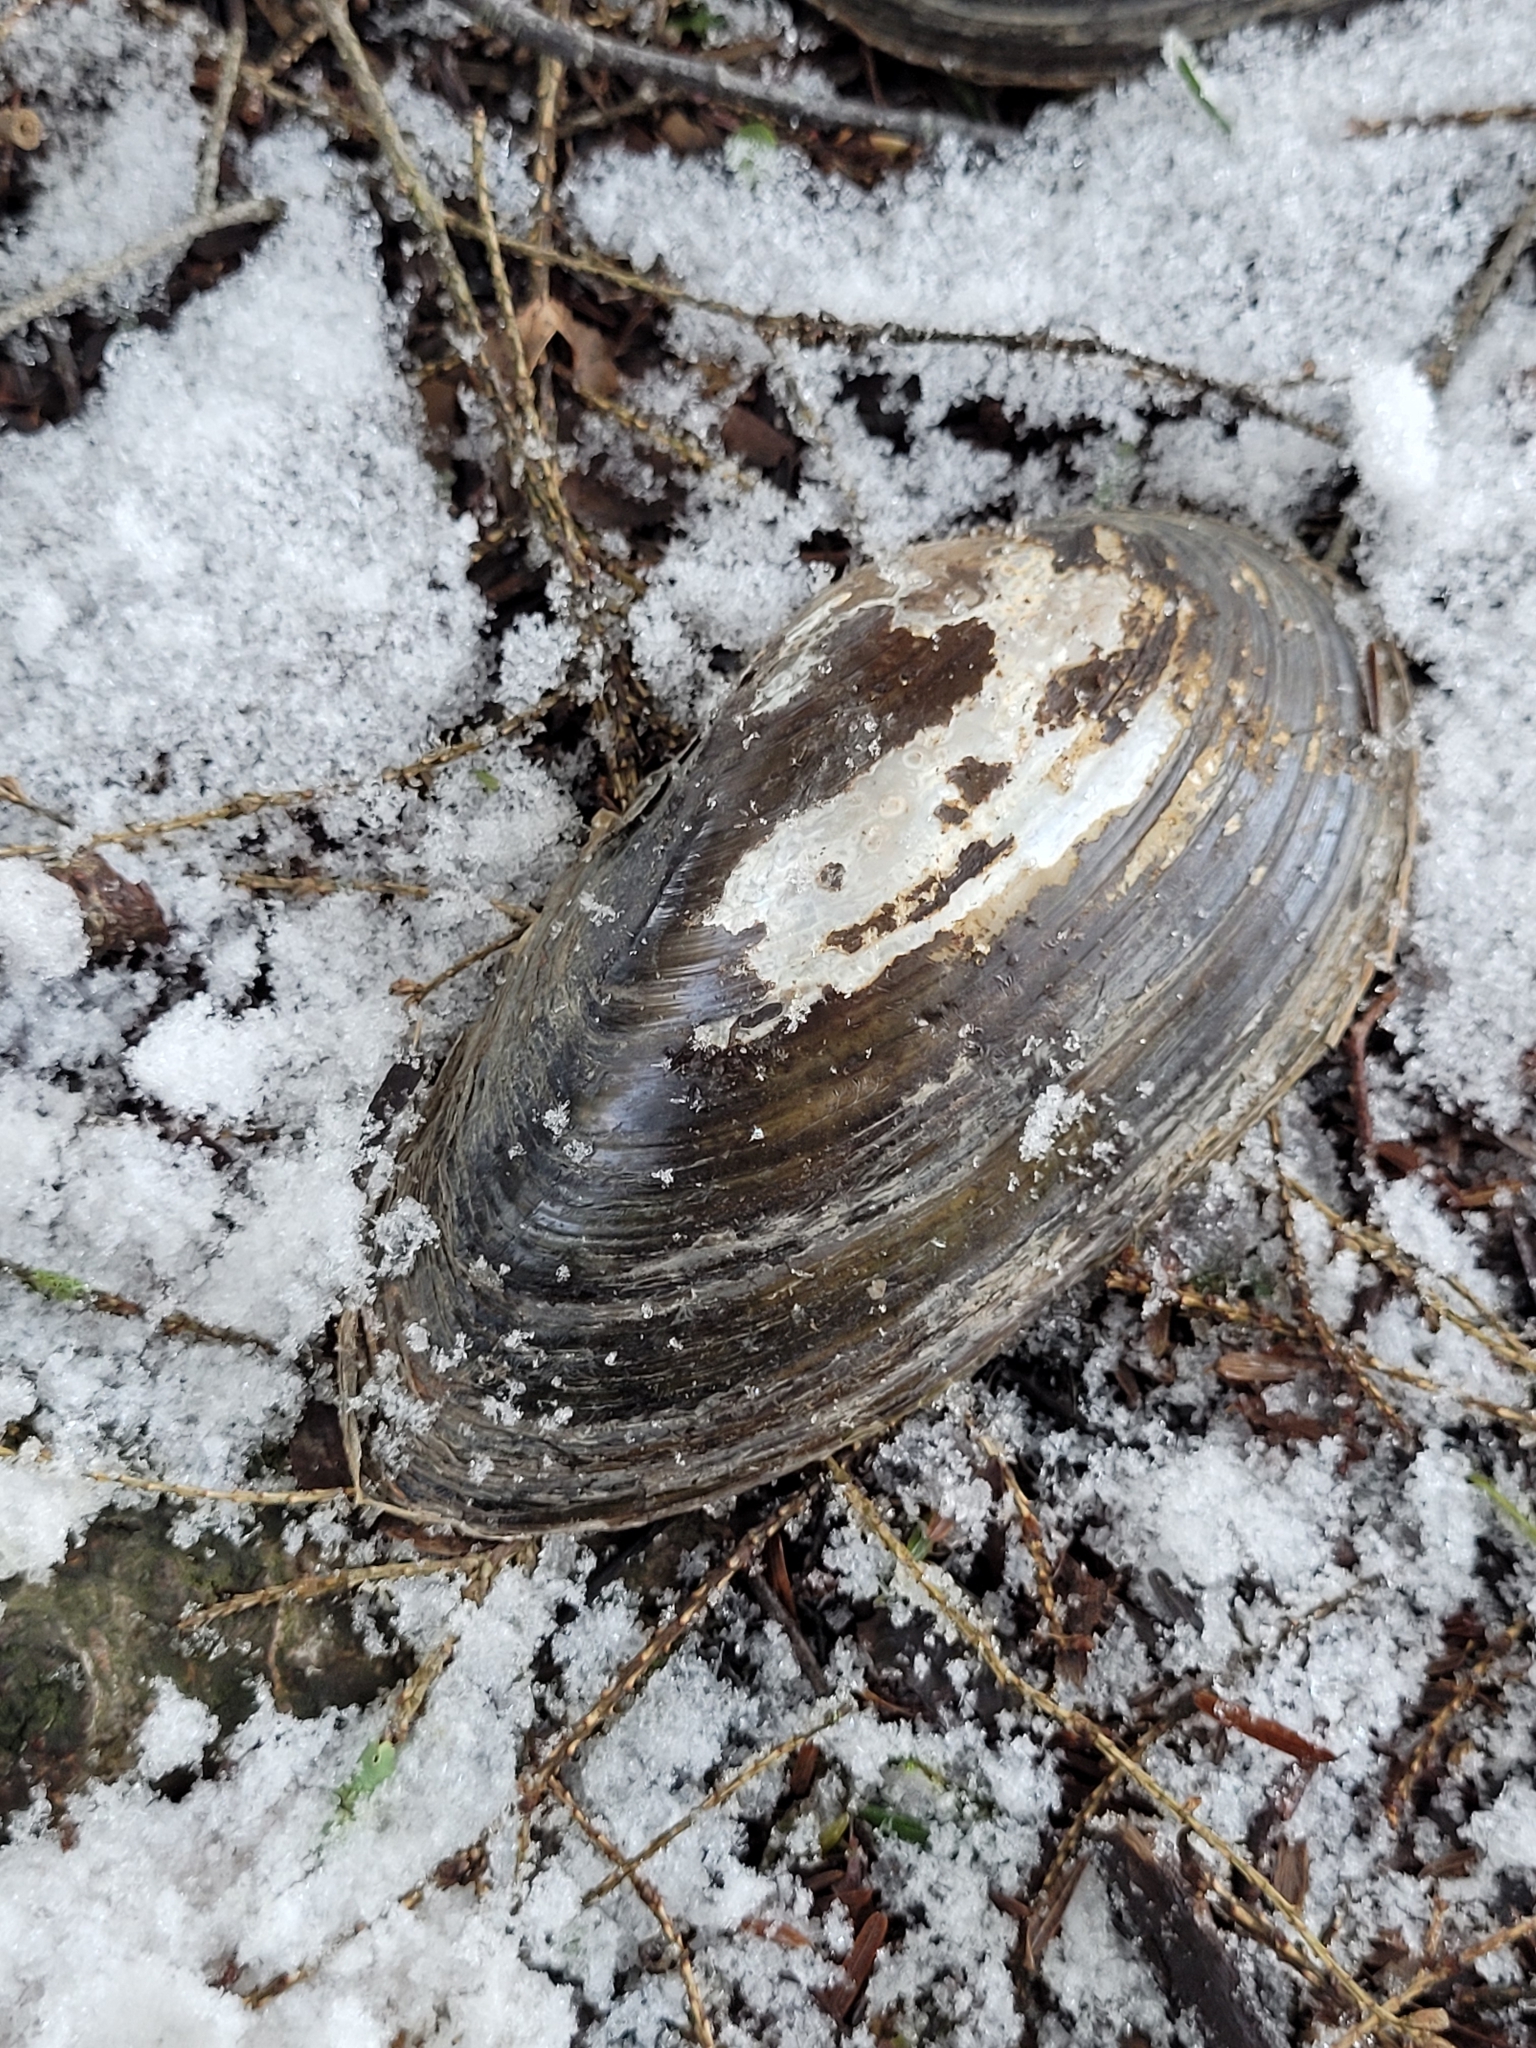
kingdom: Animalia
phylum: Mollusca
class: Bivalvia
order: Unionida
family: Unionidae
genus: Pyganodon
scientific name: Pyganodon cataracta
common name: Eastern floater
